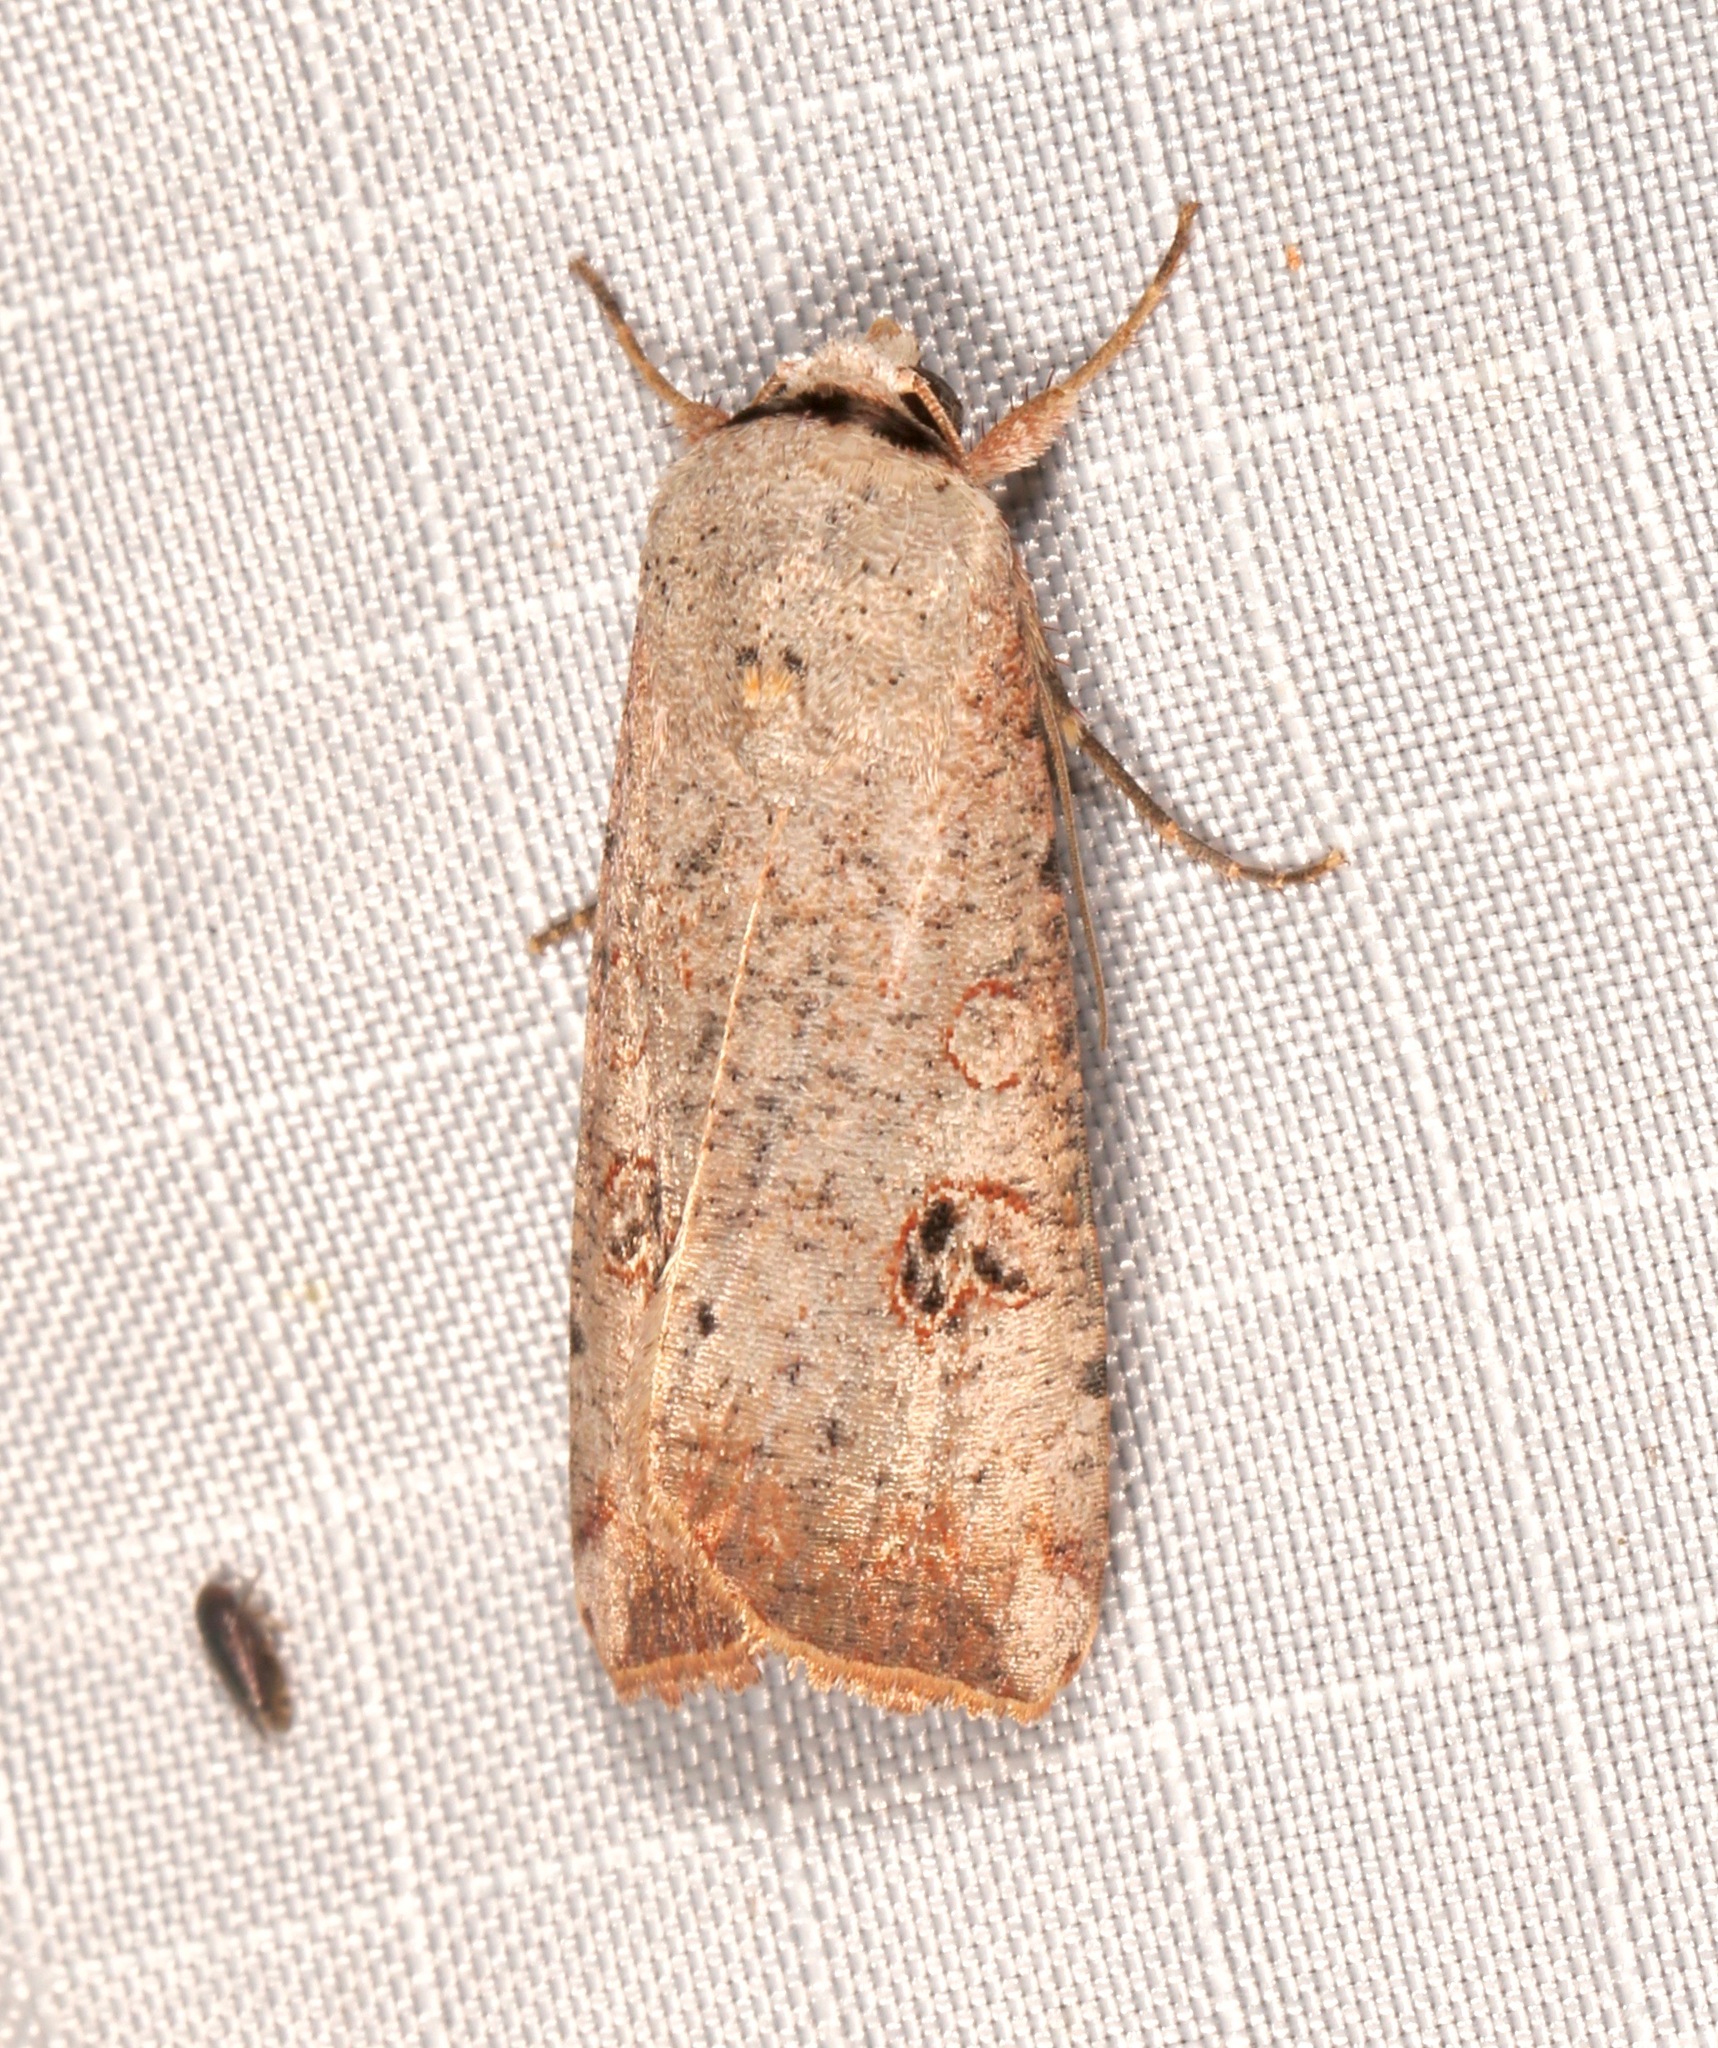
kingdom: Animalia
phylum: Arthropoda
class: Insecta
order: Lepidoptera
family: Noctuidae
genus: Anicla
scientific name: Anicla infecta
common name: Green cutworm
